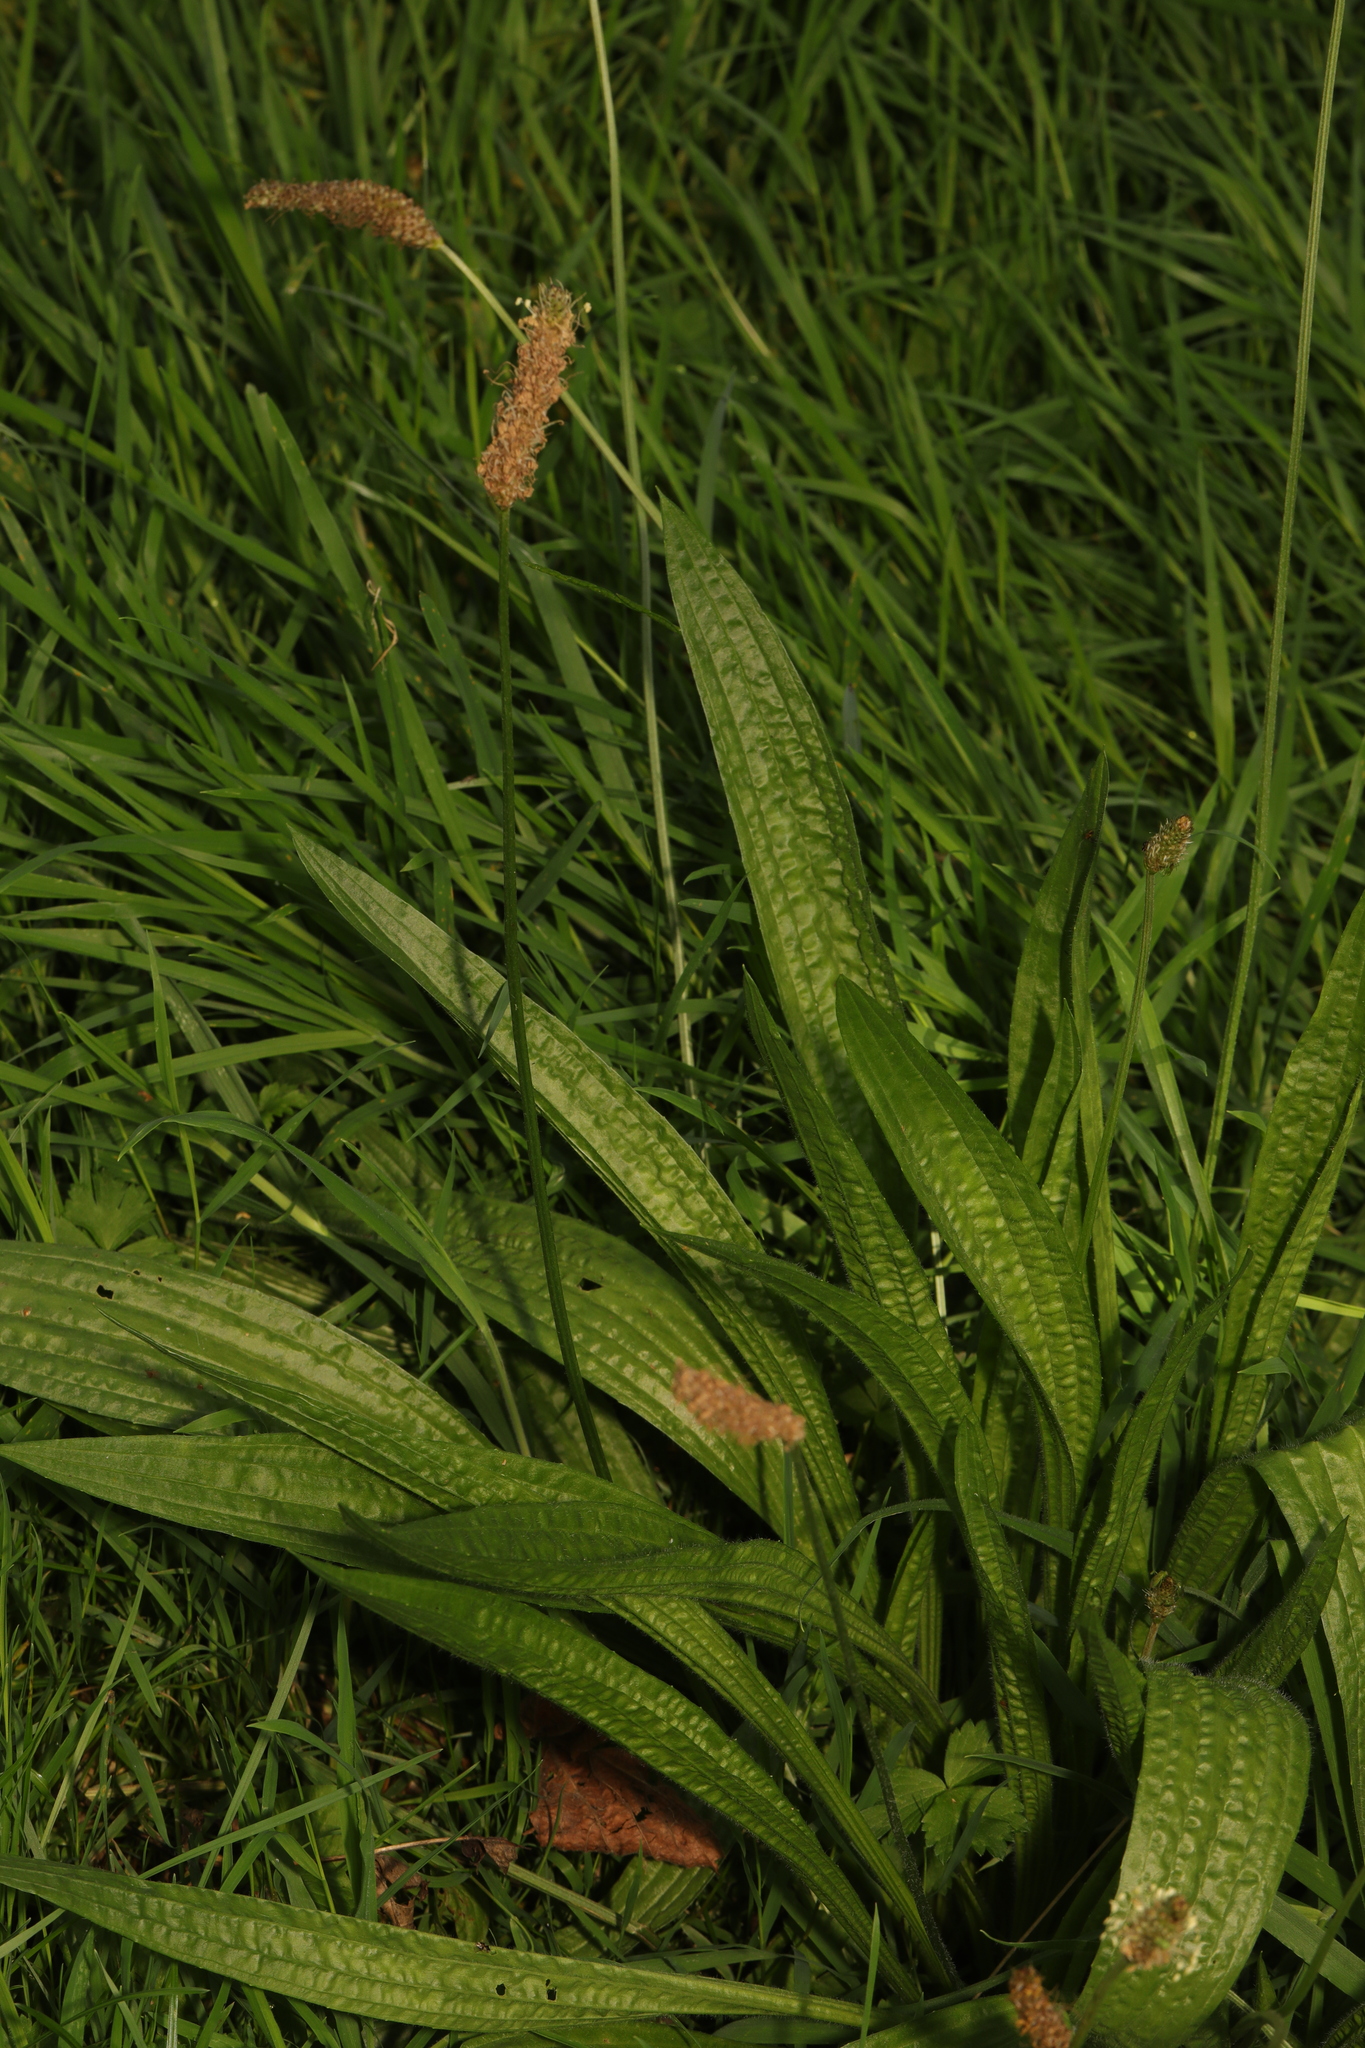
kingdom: Plantae
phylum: Tracheophyta
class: Magnoliopsida
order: Lamiales
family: Plantaginaceae
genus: Plantago
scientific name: Plantago lanceolata
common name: Ribwort plantain
